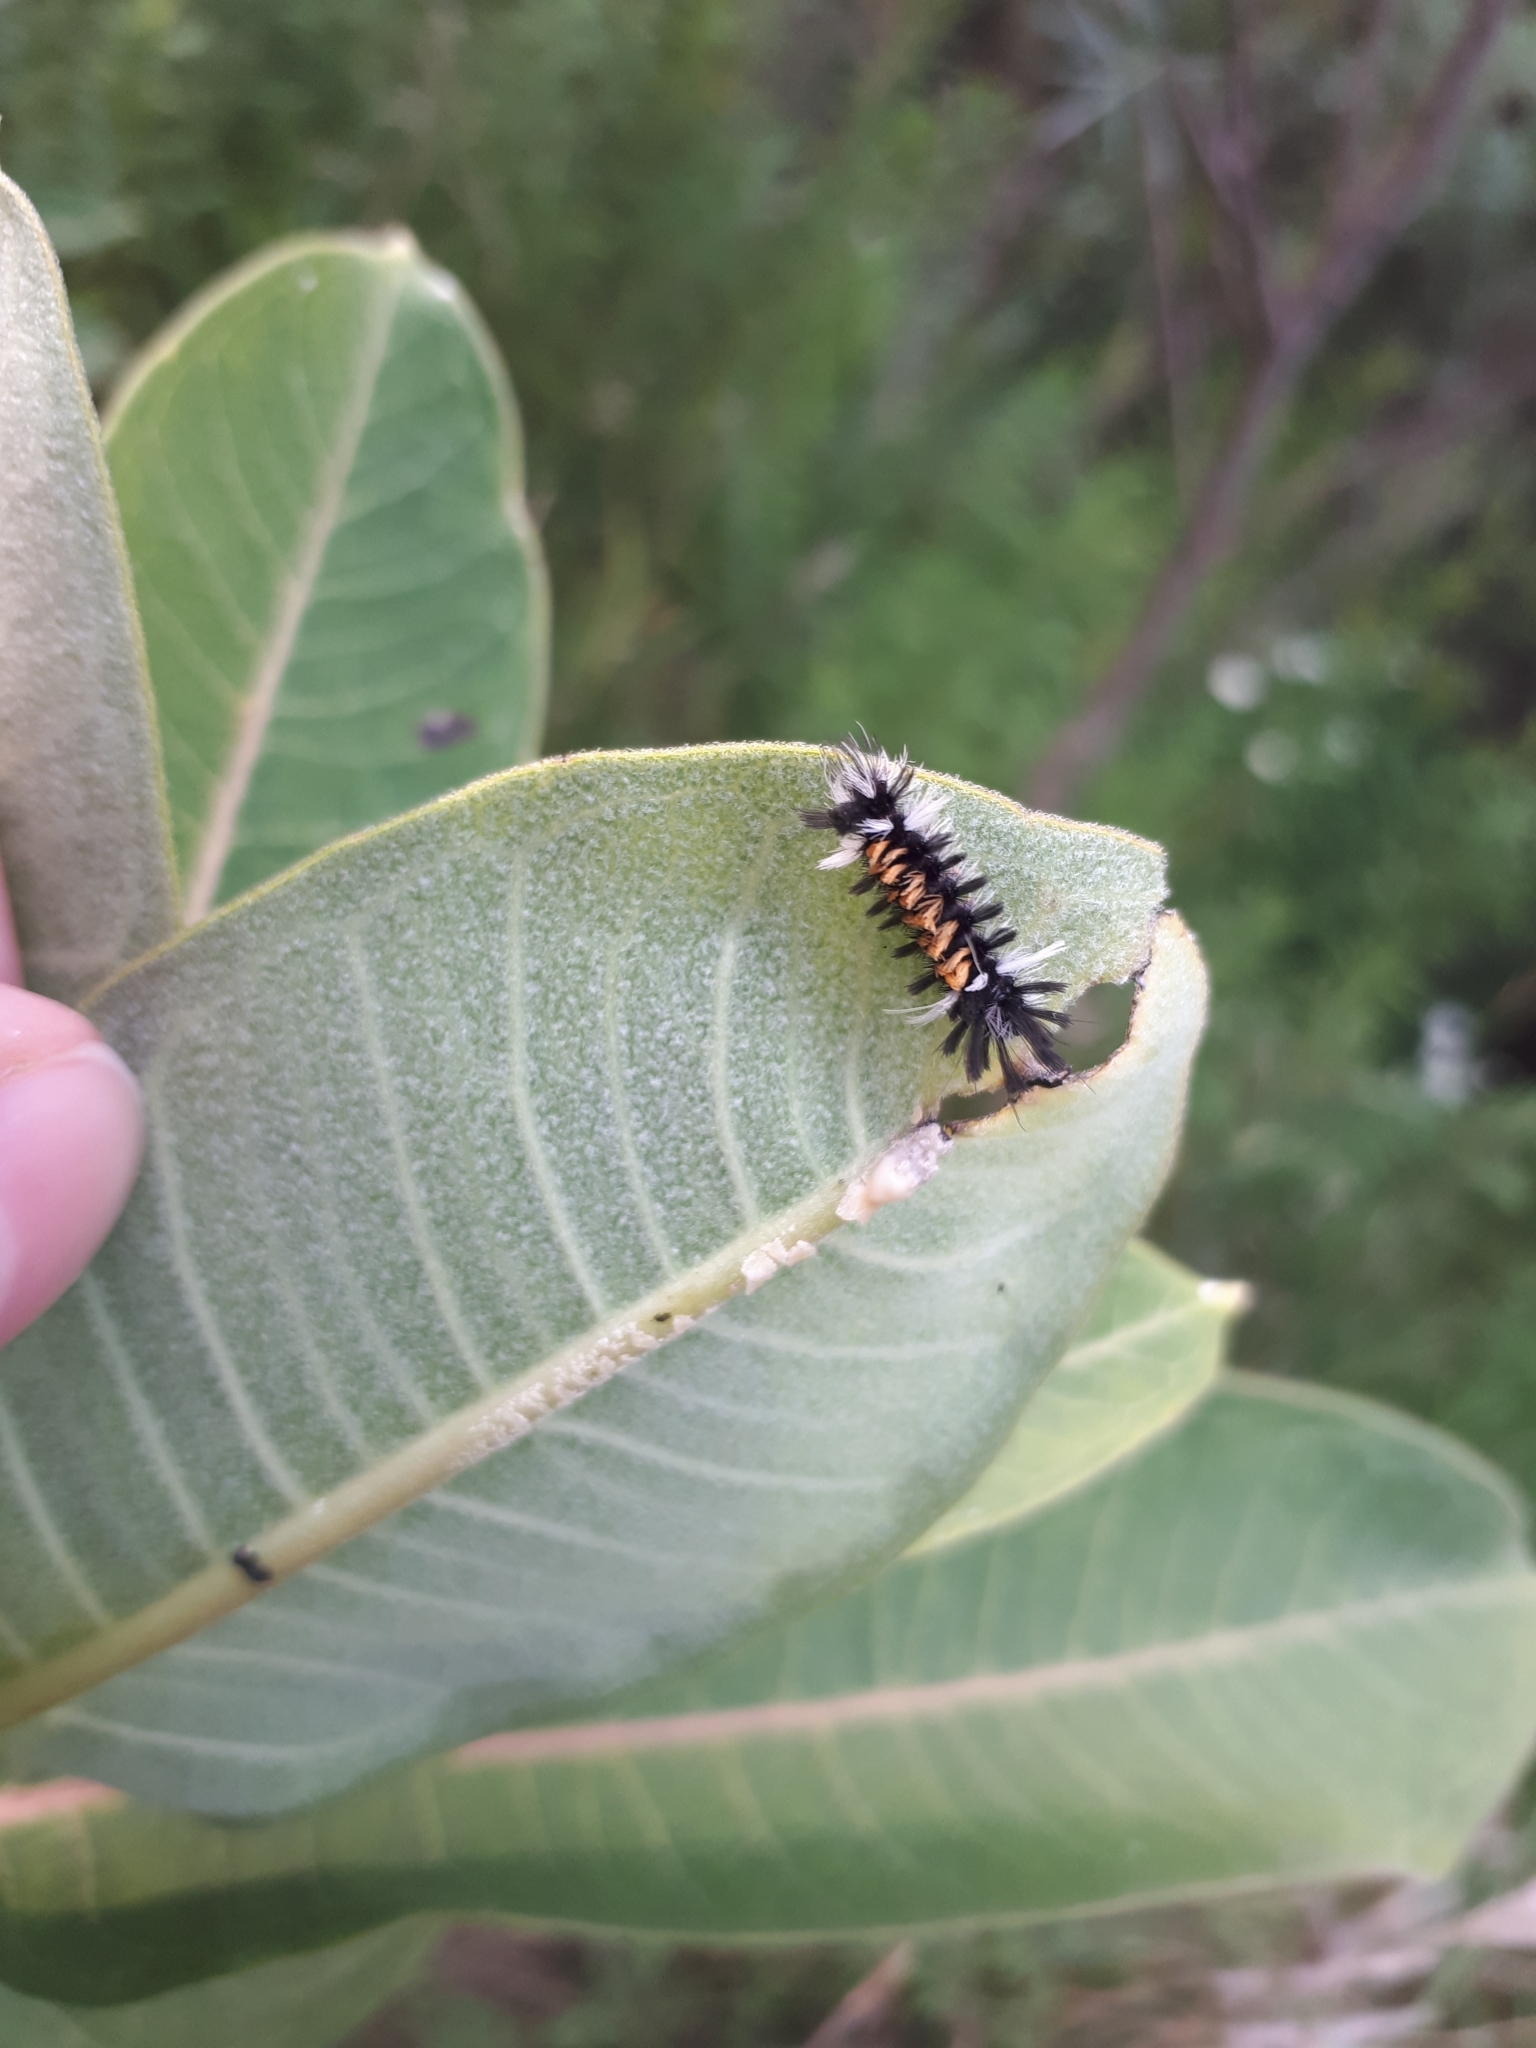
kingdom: Animalia
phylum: Arthropoda
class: Insecta
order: Lepidoptera
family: Erebidae
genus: Euchaetes
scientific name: Euchaetes egle
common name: Milkweed tussock moth
